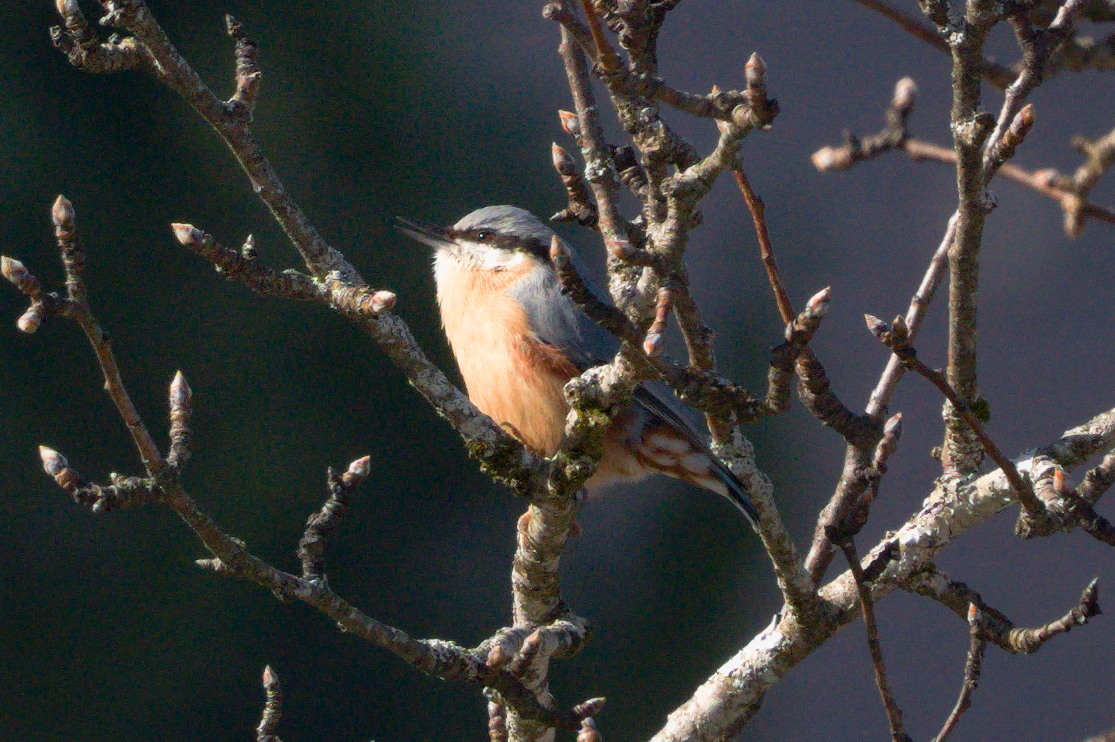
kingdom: Animalia
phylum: Chordata
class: Aves
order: Passeriformes
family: Sittidae
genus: Sitta
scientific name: Sitta europaea
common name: Eurasian nuthatch
